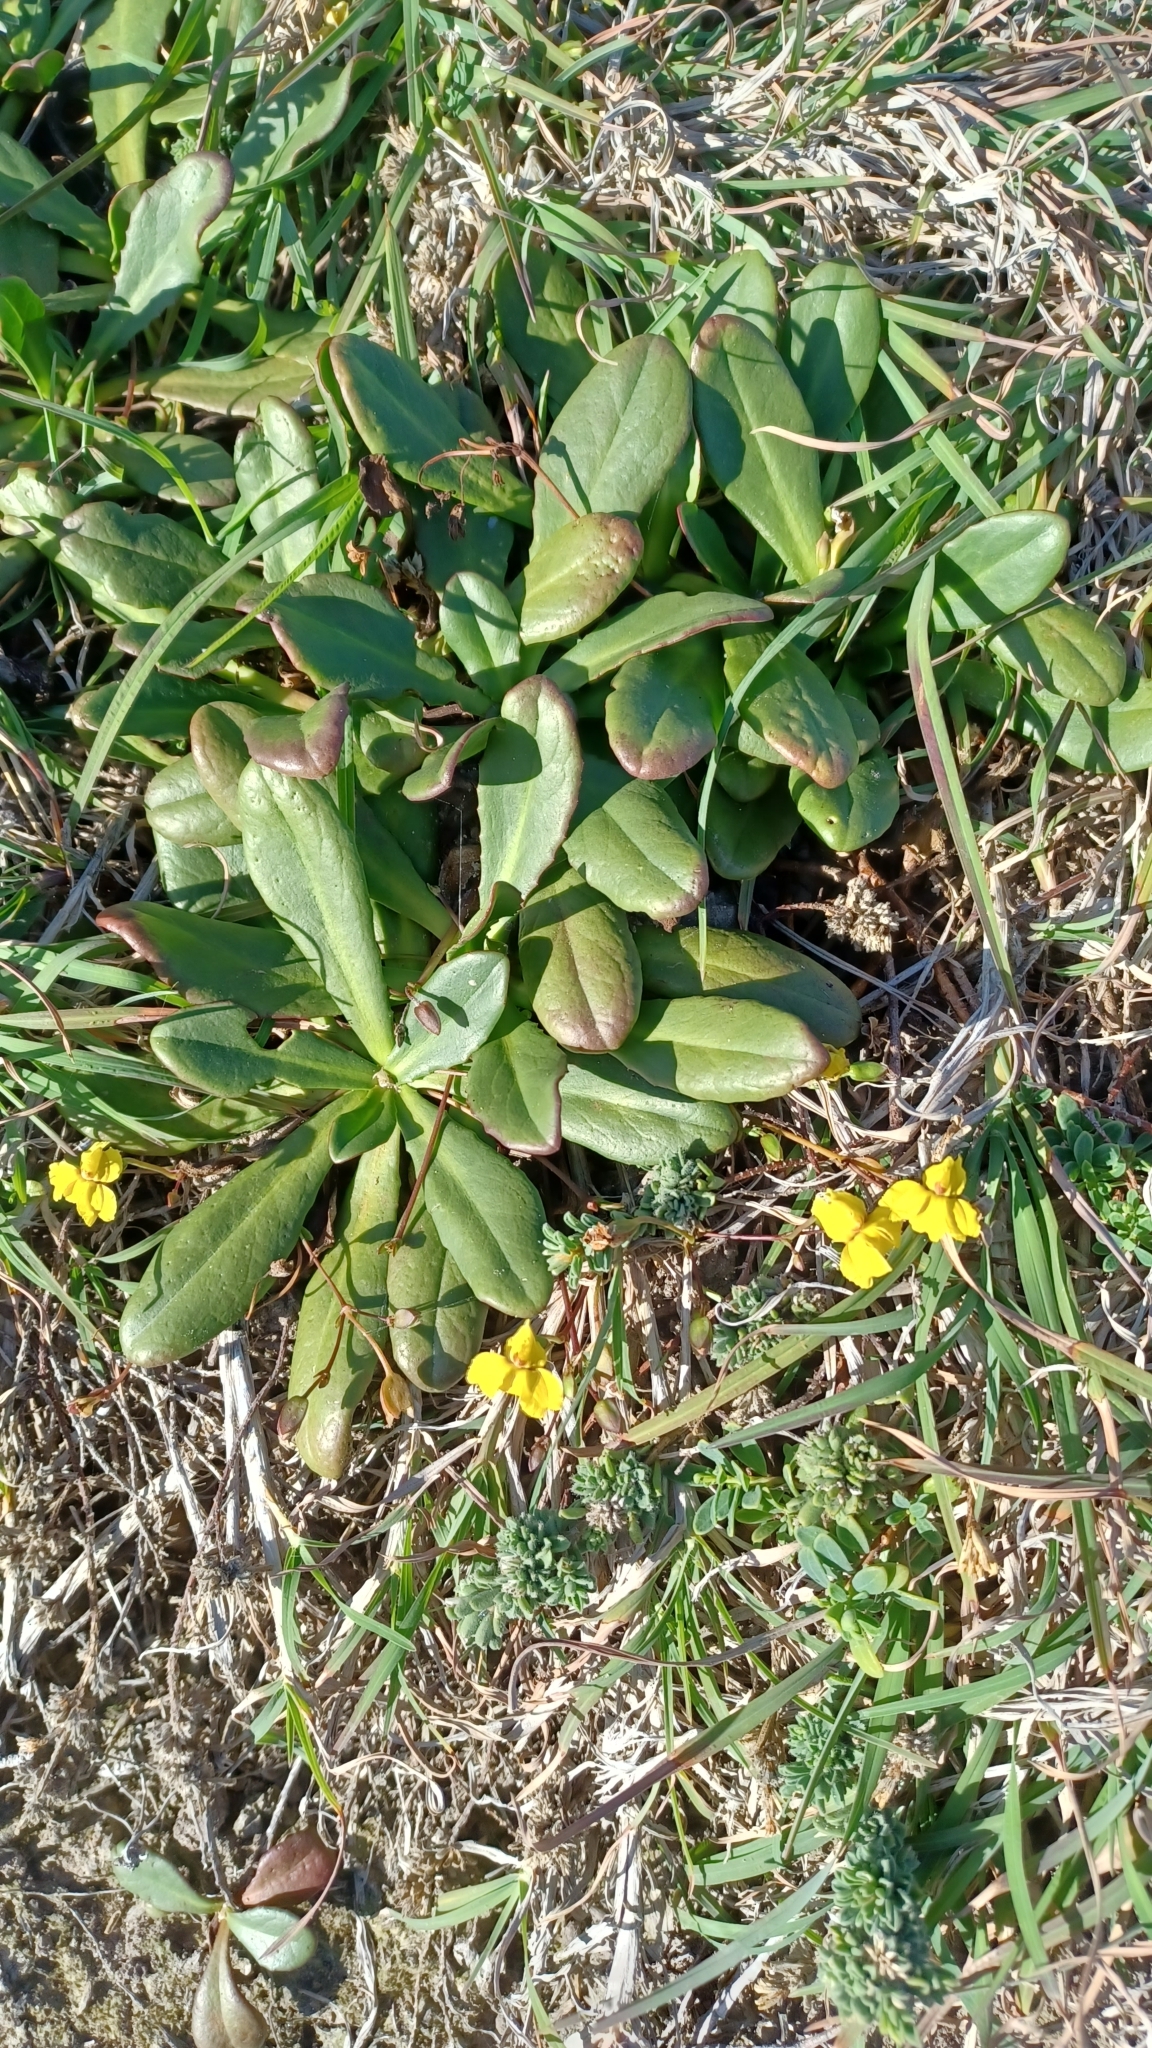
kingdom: Plantae
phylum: Tracheophyta
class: Magnoliopsida
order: Asterales
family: Goodeniaceae
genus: Goodenia
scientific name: Goodenia mystrophylla
